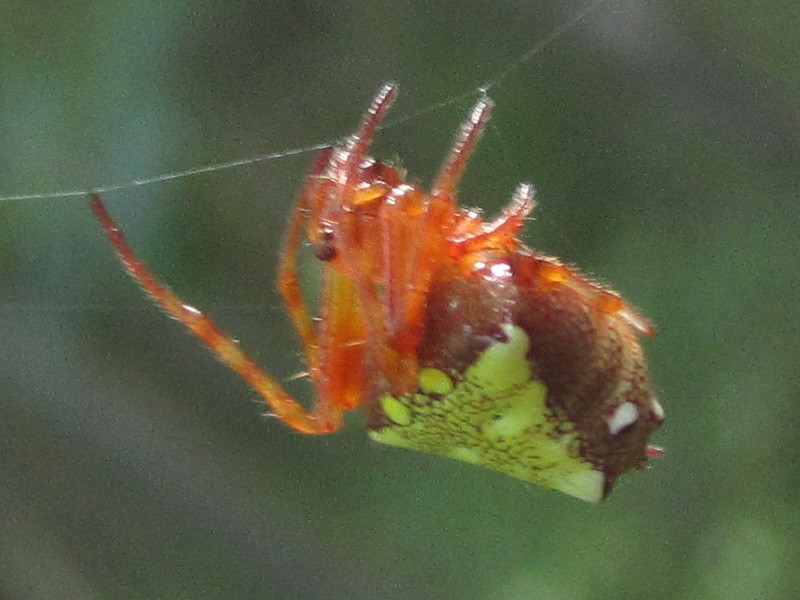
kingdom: Animalia
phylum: Arthropoda
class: Arachnida
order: Araneae
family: Araneidae
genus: Verrucosa
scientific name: Verrucosa arenata
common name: Orb weavers
